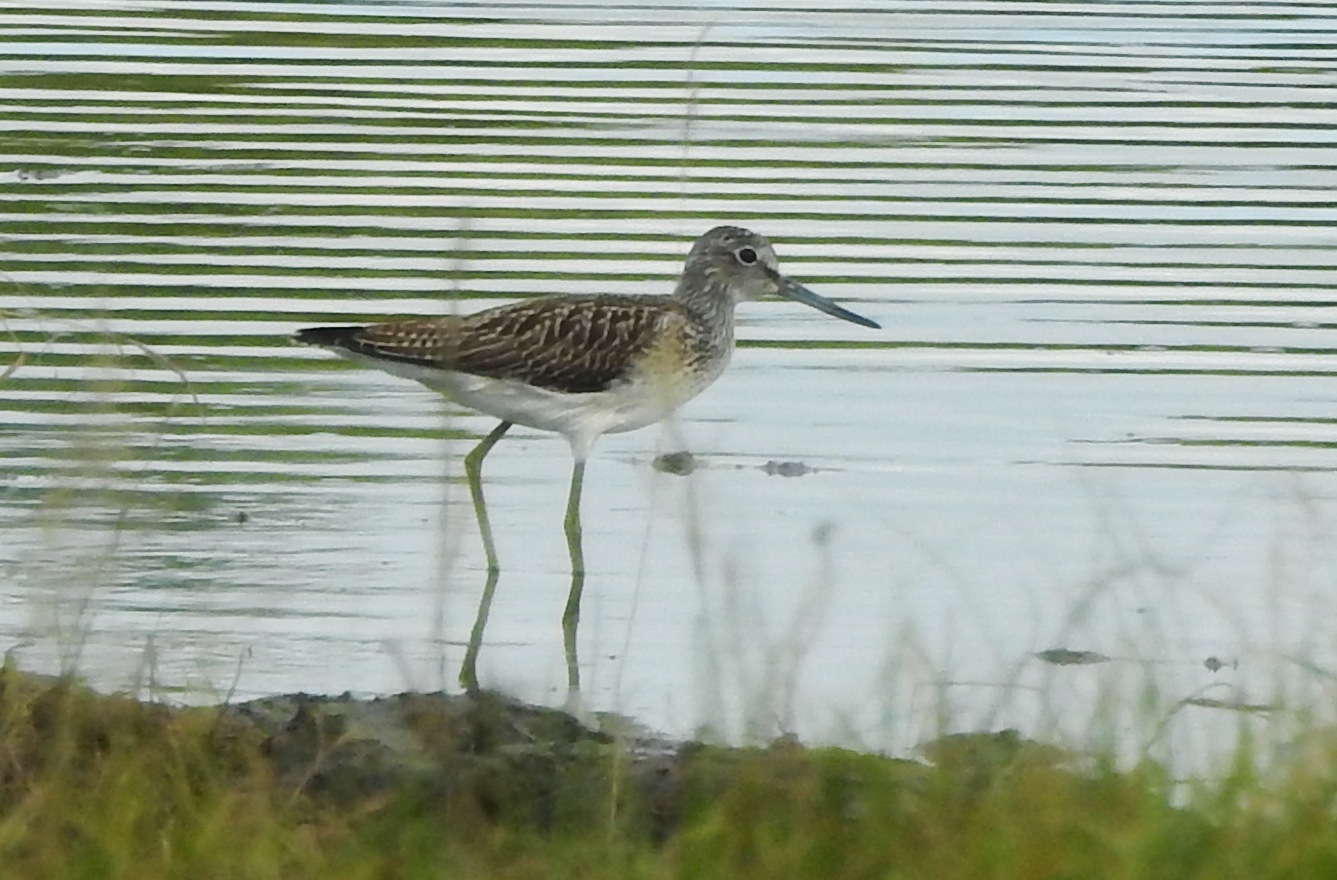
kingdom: Animalia
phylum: Chordata
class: Aves
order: Charadriiformes
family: Scolopacidae
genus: Tringa
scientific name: Tringa nebularia
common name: Common greenshank
